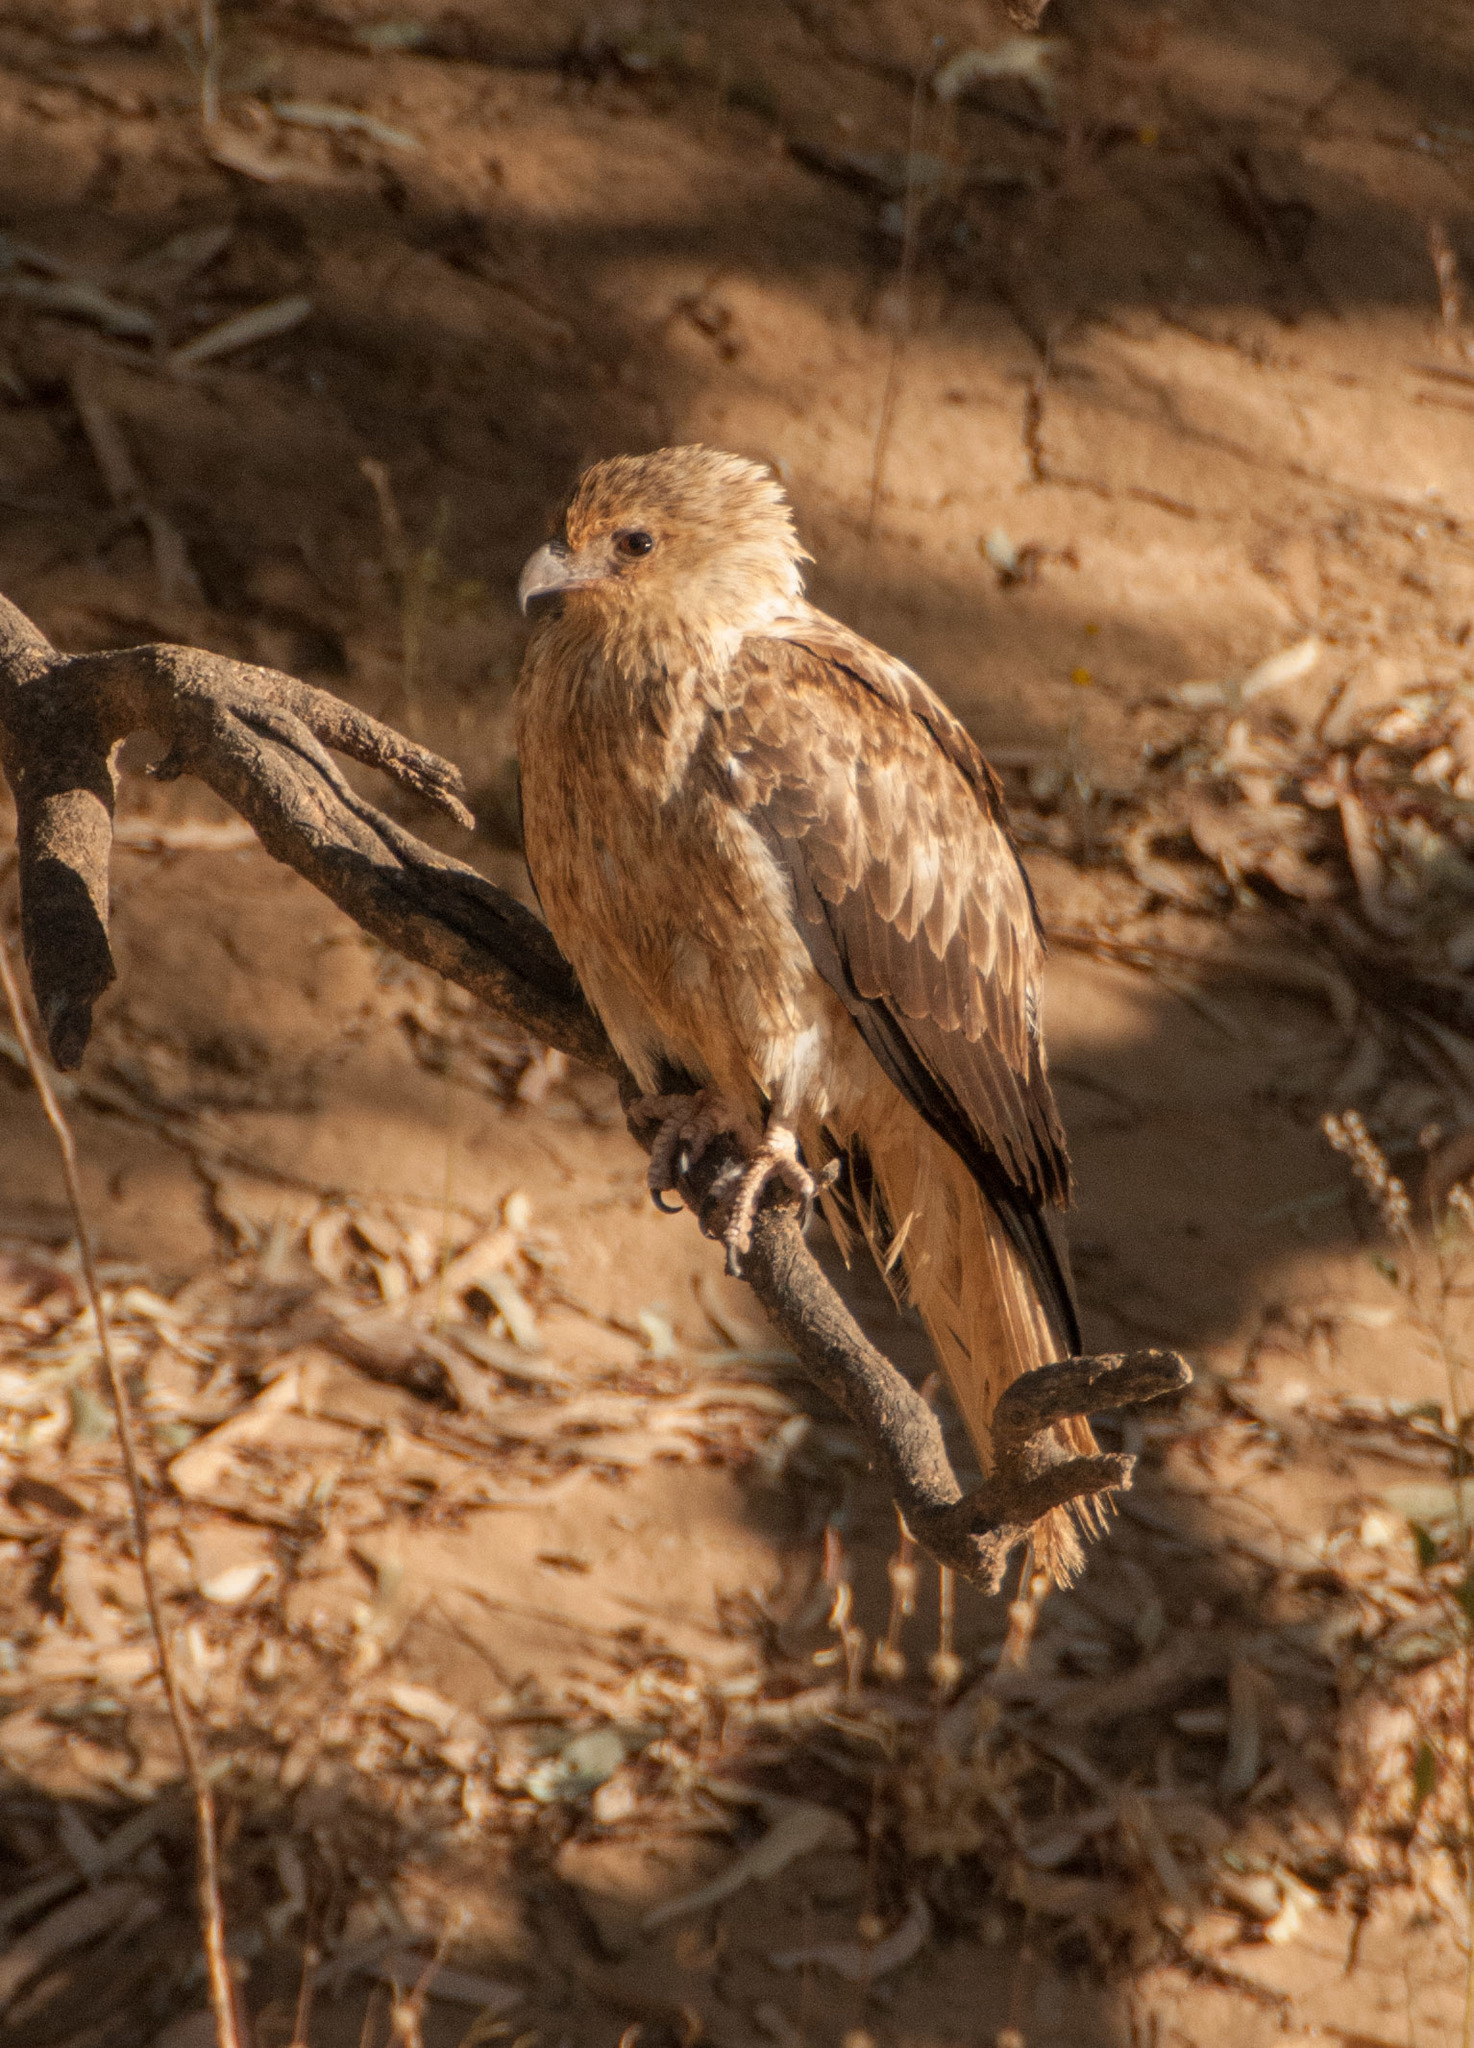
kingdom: Animalia
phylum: Chordata
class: Aves
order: Accipitriformes
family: Accipitridae
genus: Haliastur
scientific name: Haliastur sphenurus
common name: Whistling kite
